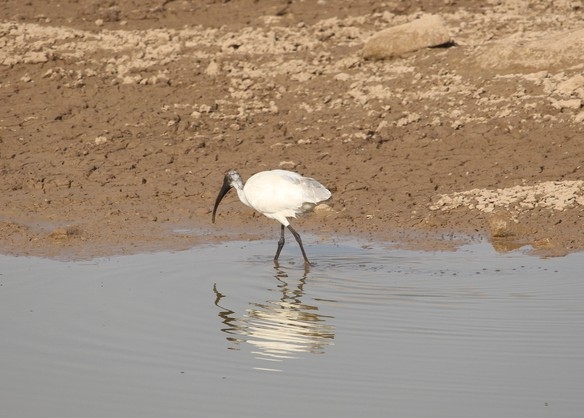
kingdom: Animalia
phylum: Chordata
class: Aves
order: Pelecaniformes
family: Threskiornithidae
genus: Threskiornis
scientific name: Threskiornis melanocephalus
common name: Black-headed ibis
